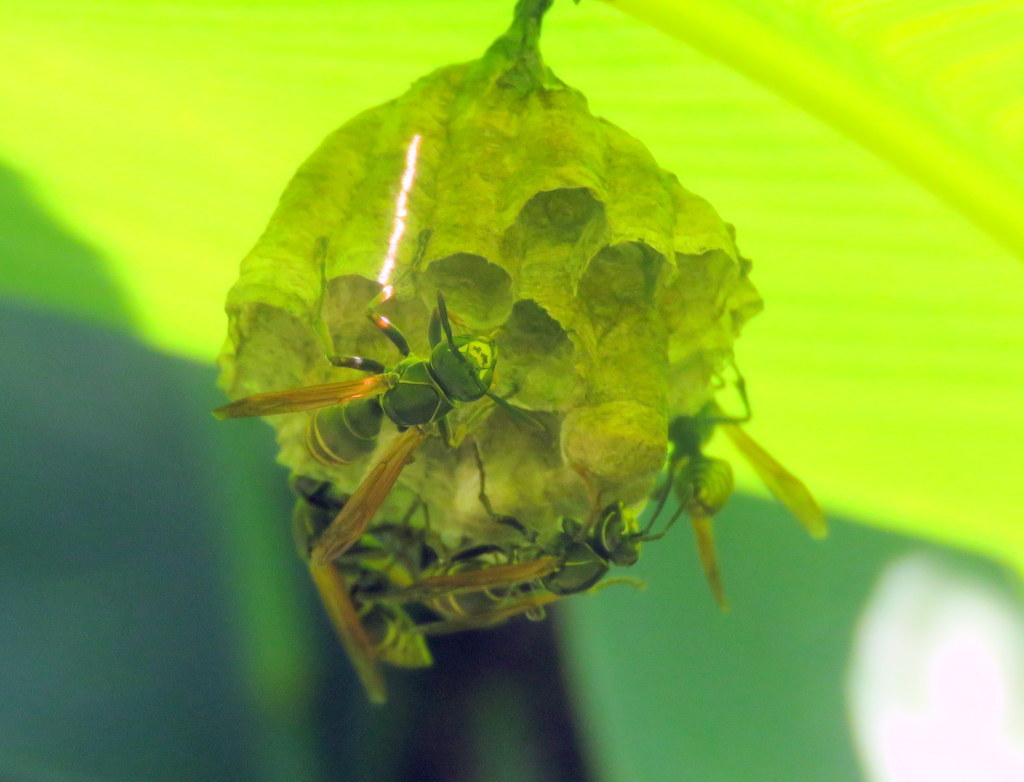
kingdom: Animalia
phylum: Arthropoda
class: Insecta
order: Hymenoptera
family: Eumenidae
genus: Polistes
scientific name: Polistes cinerascens
